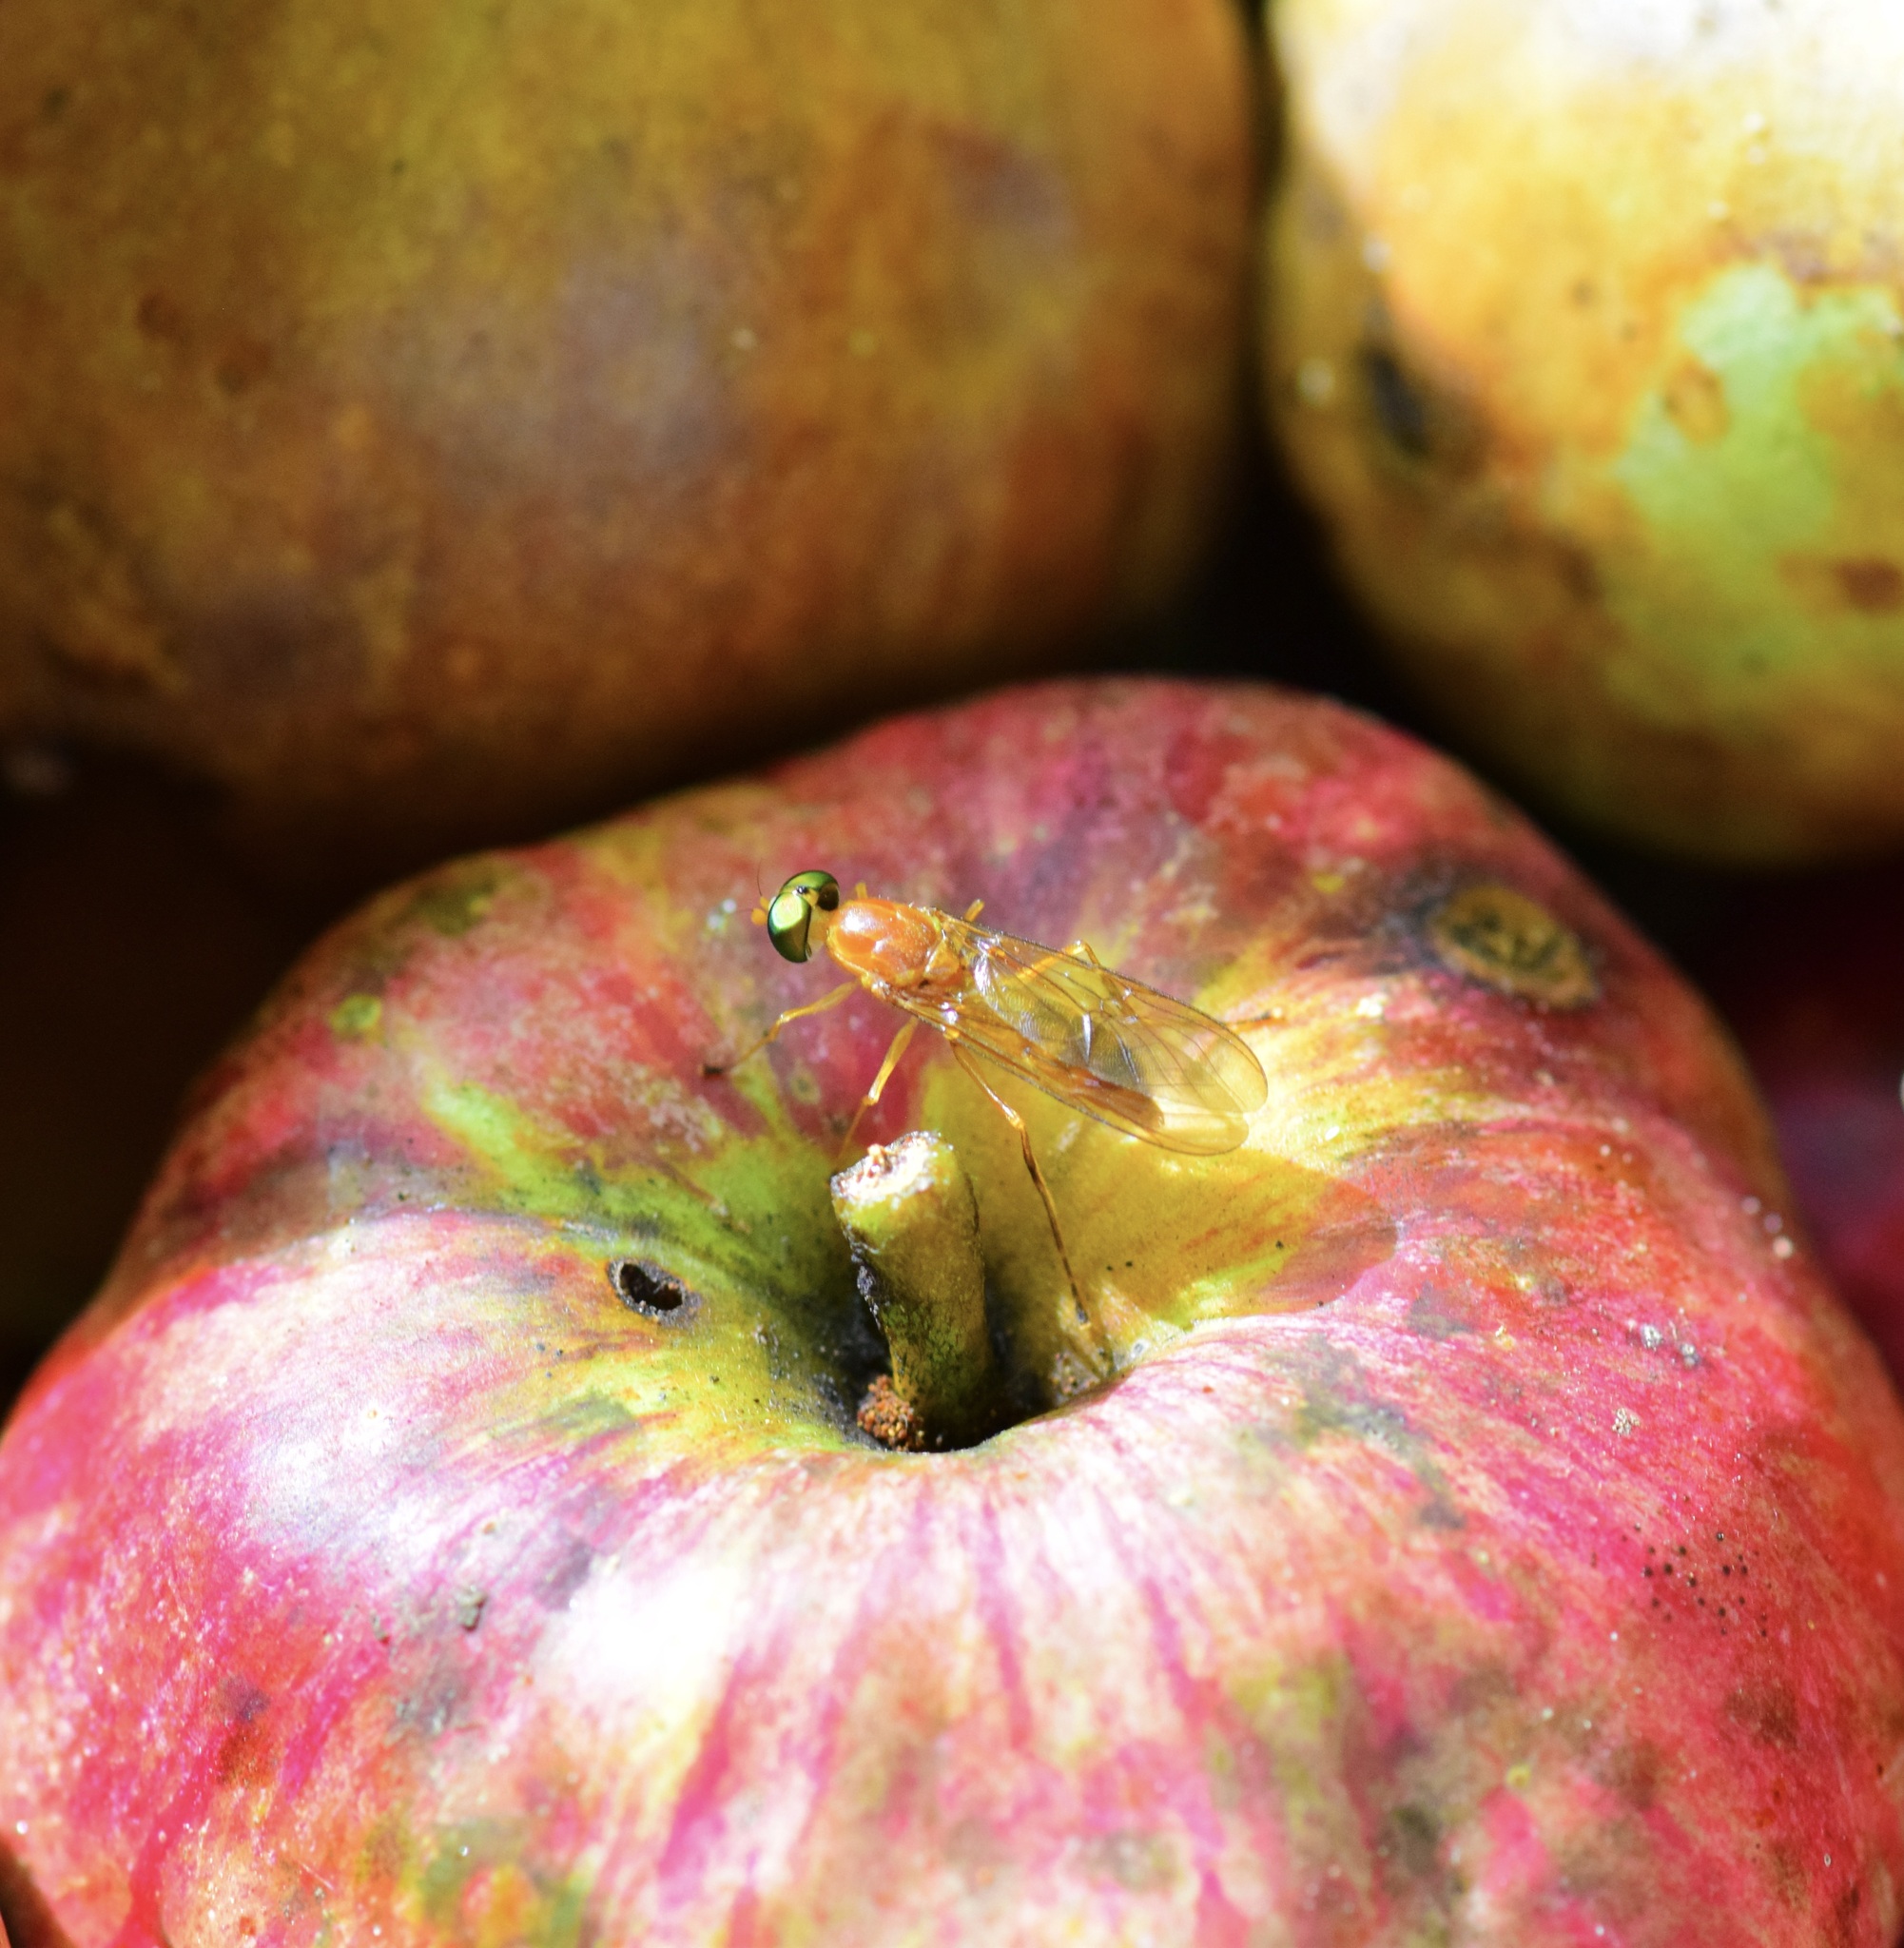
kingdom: Animalia
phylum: Arthropoda
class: Insecta
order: Diptera
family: Stratiomyidae
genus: Ptecticus
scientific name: Ptecticus trivittatus
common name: Compost fly
